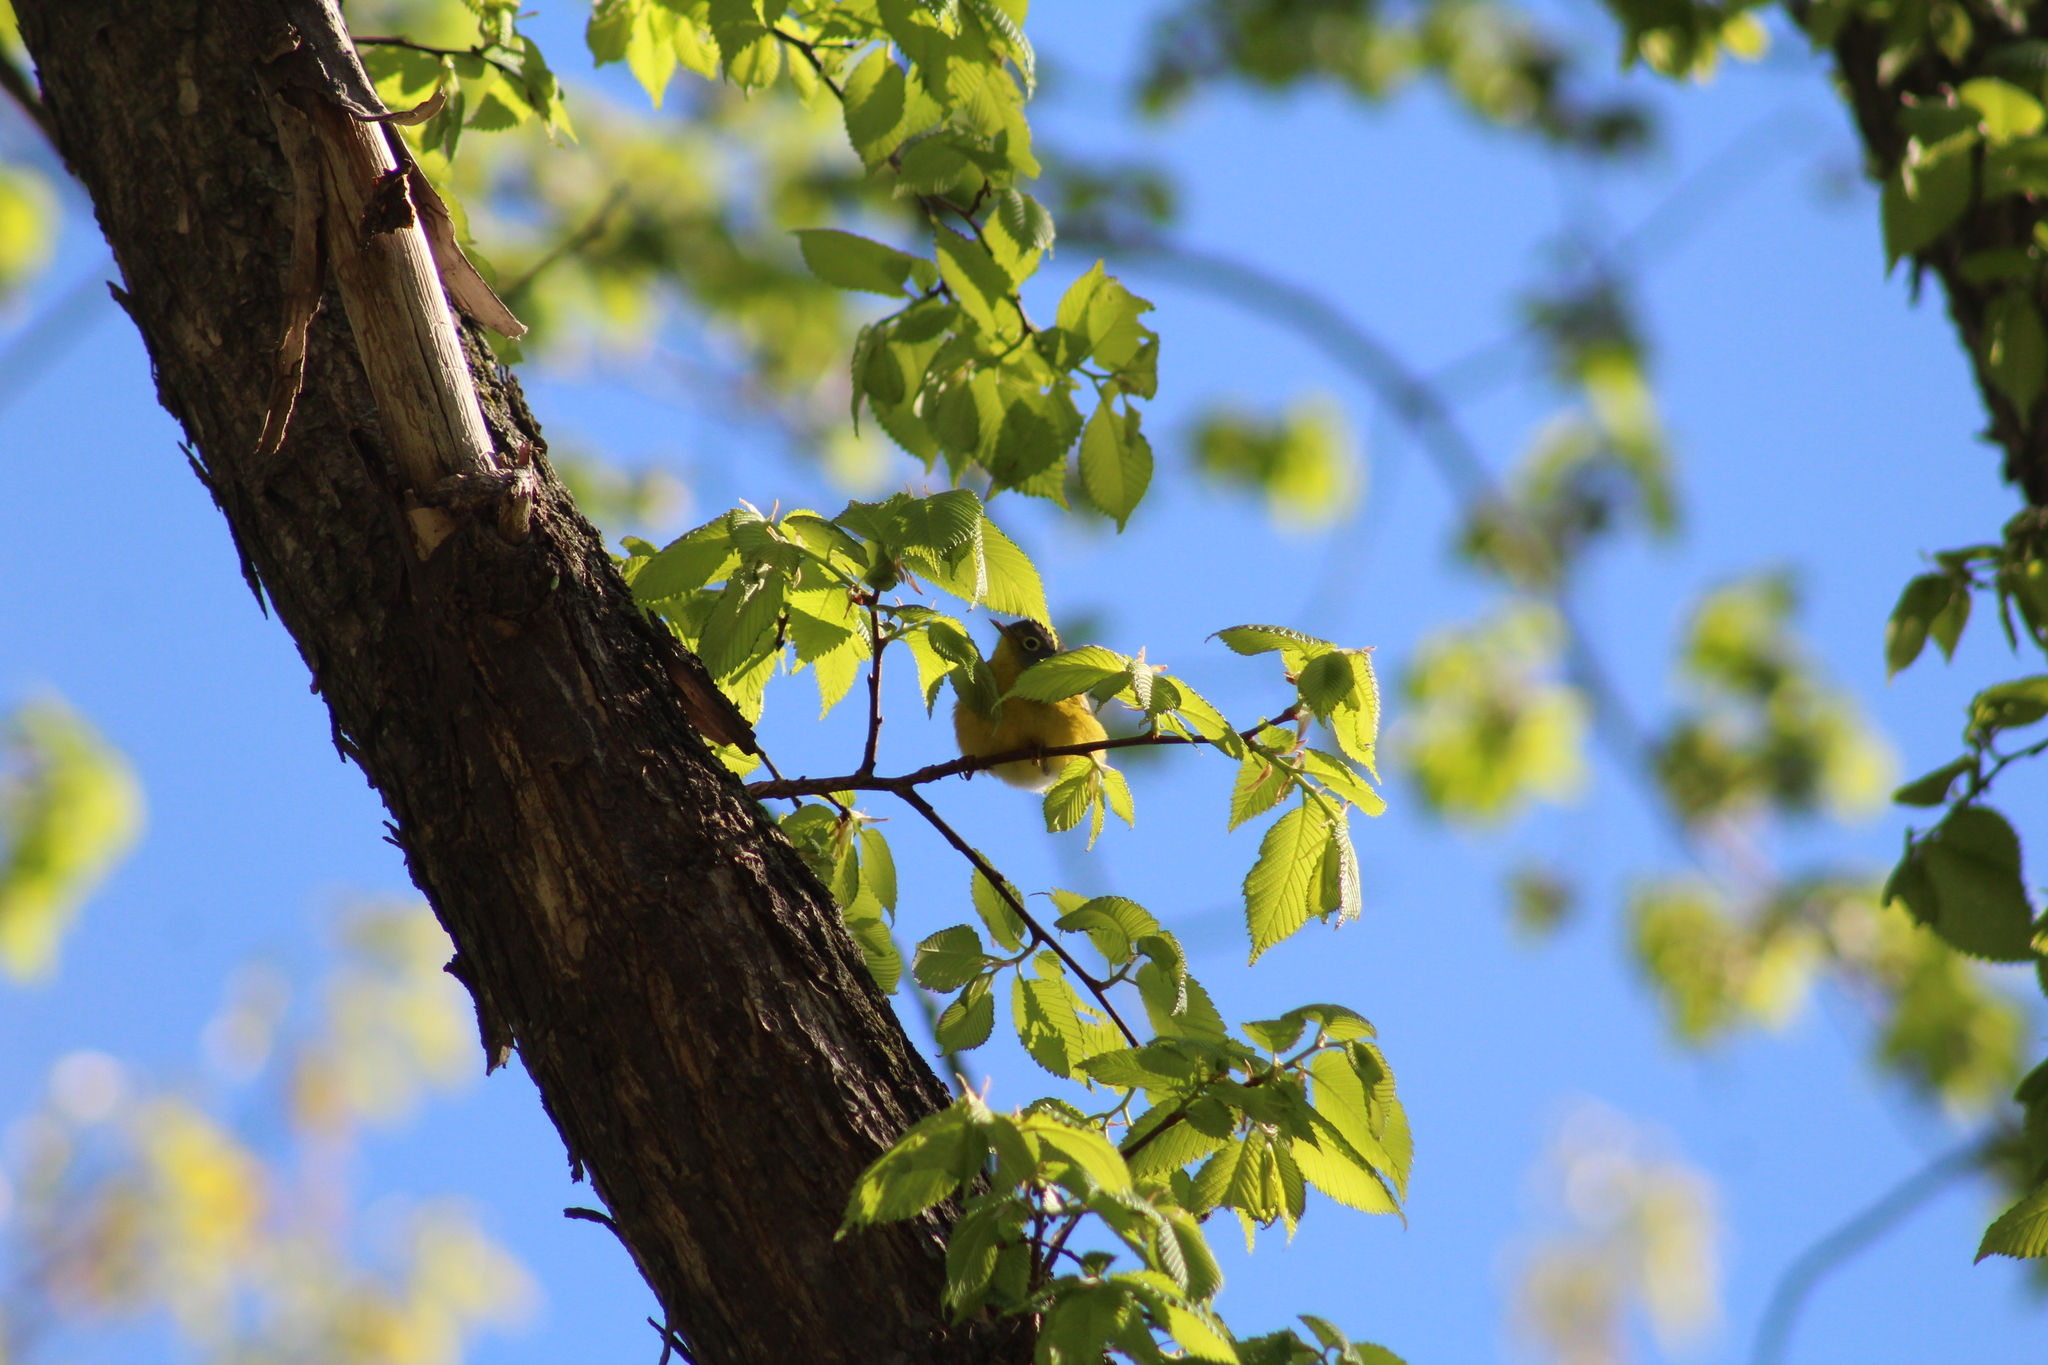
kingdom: Animalia
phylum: Chordata
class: Aves
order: Passeriformes
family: Parulidae
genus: Leiothlypis
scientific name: Leiothlypis ruficapilla
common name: Nashville warbler
